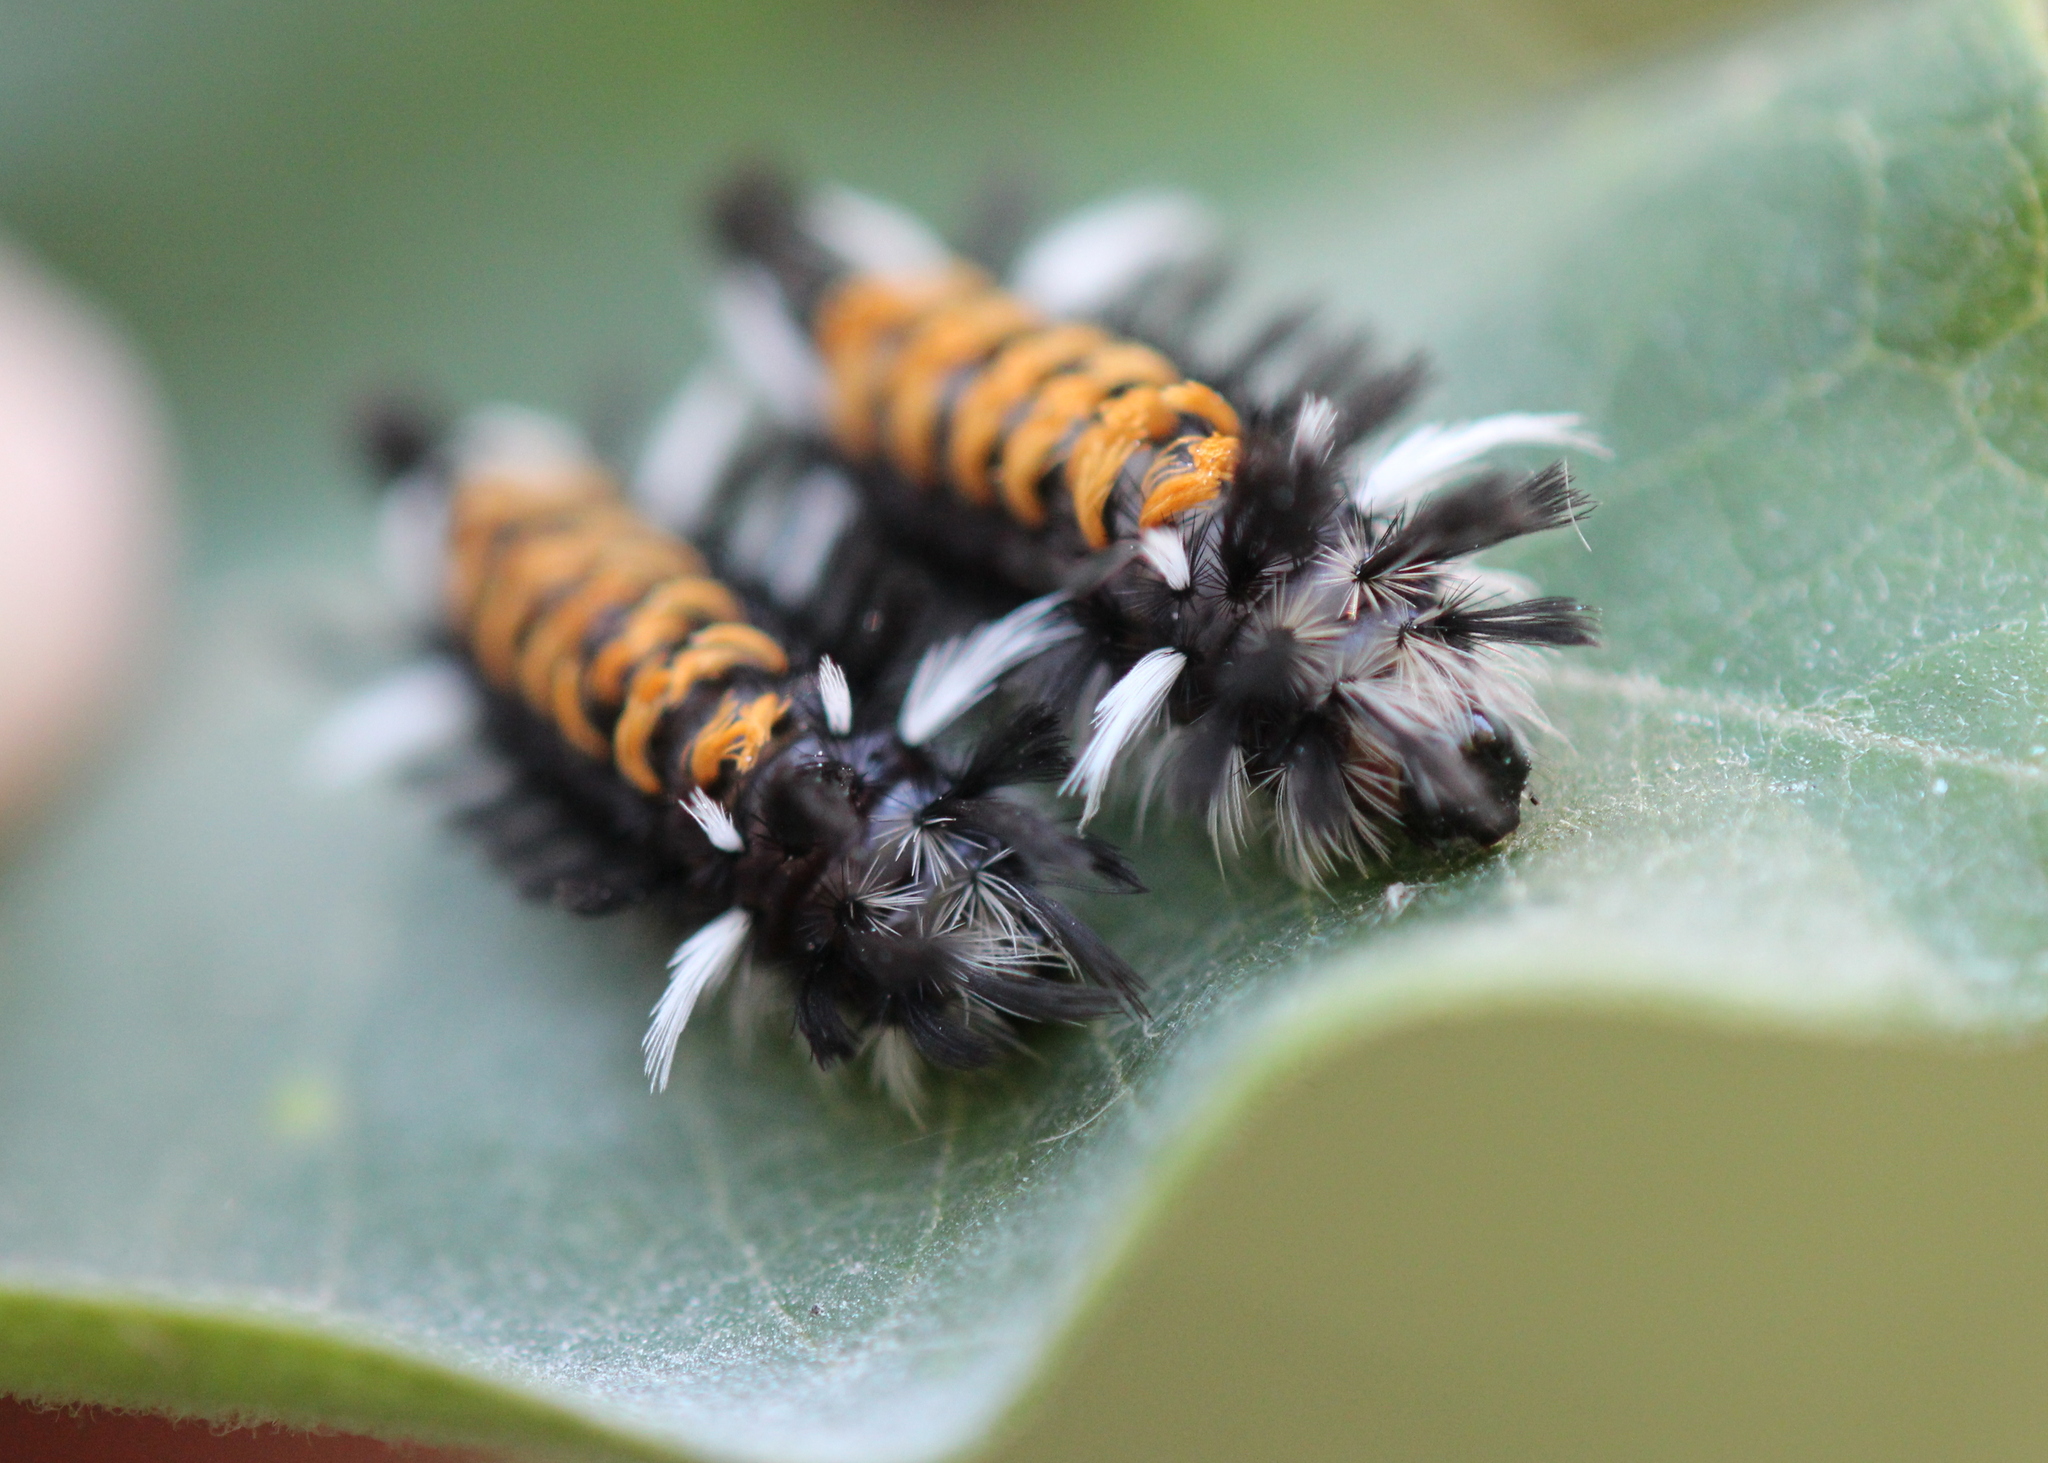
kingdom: Animalia
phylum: Arthropoda
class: Insecta
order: Lepidoptera
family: Erebidae
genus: Euchaetes
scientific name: Euchaetes egle
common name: Milkweed tussock moth
